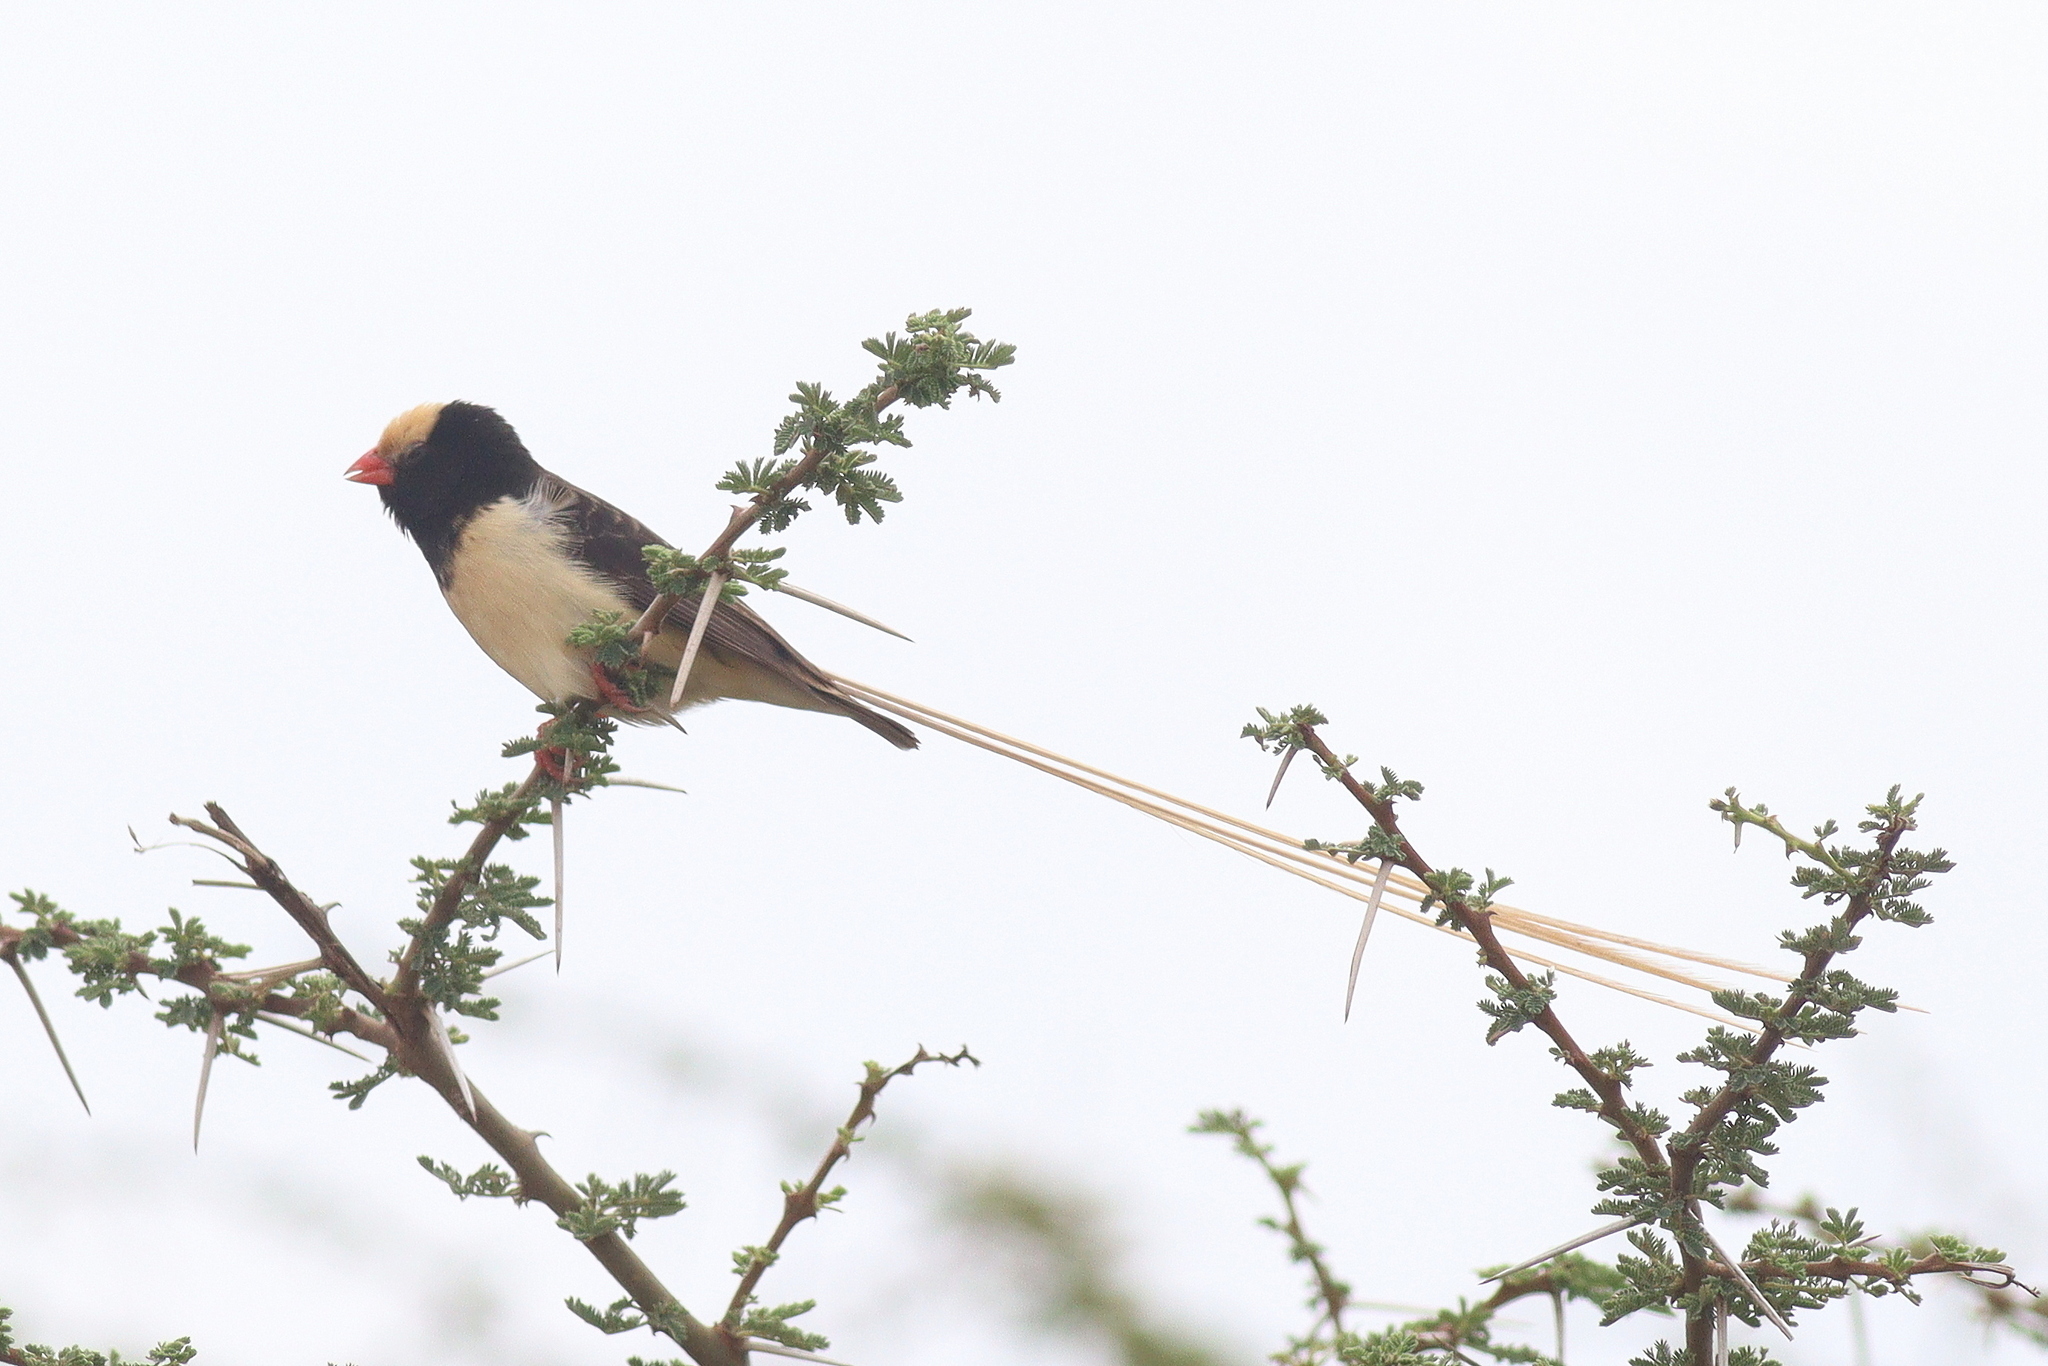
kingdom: Animalia
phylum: Chordata
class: Aves
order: Passeriformes
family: Viduidae
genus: Vidua
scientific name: Vidua fischeri
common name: Straw-tailed whydah
